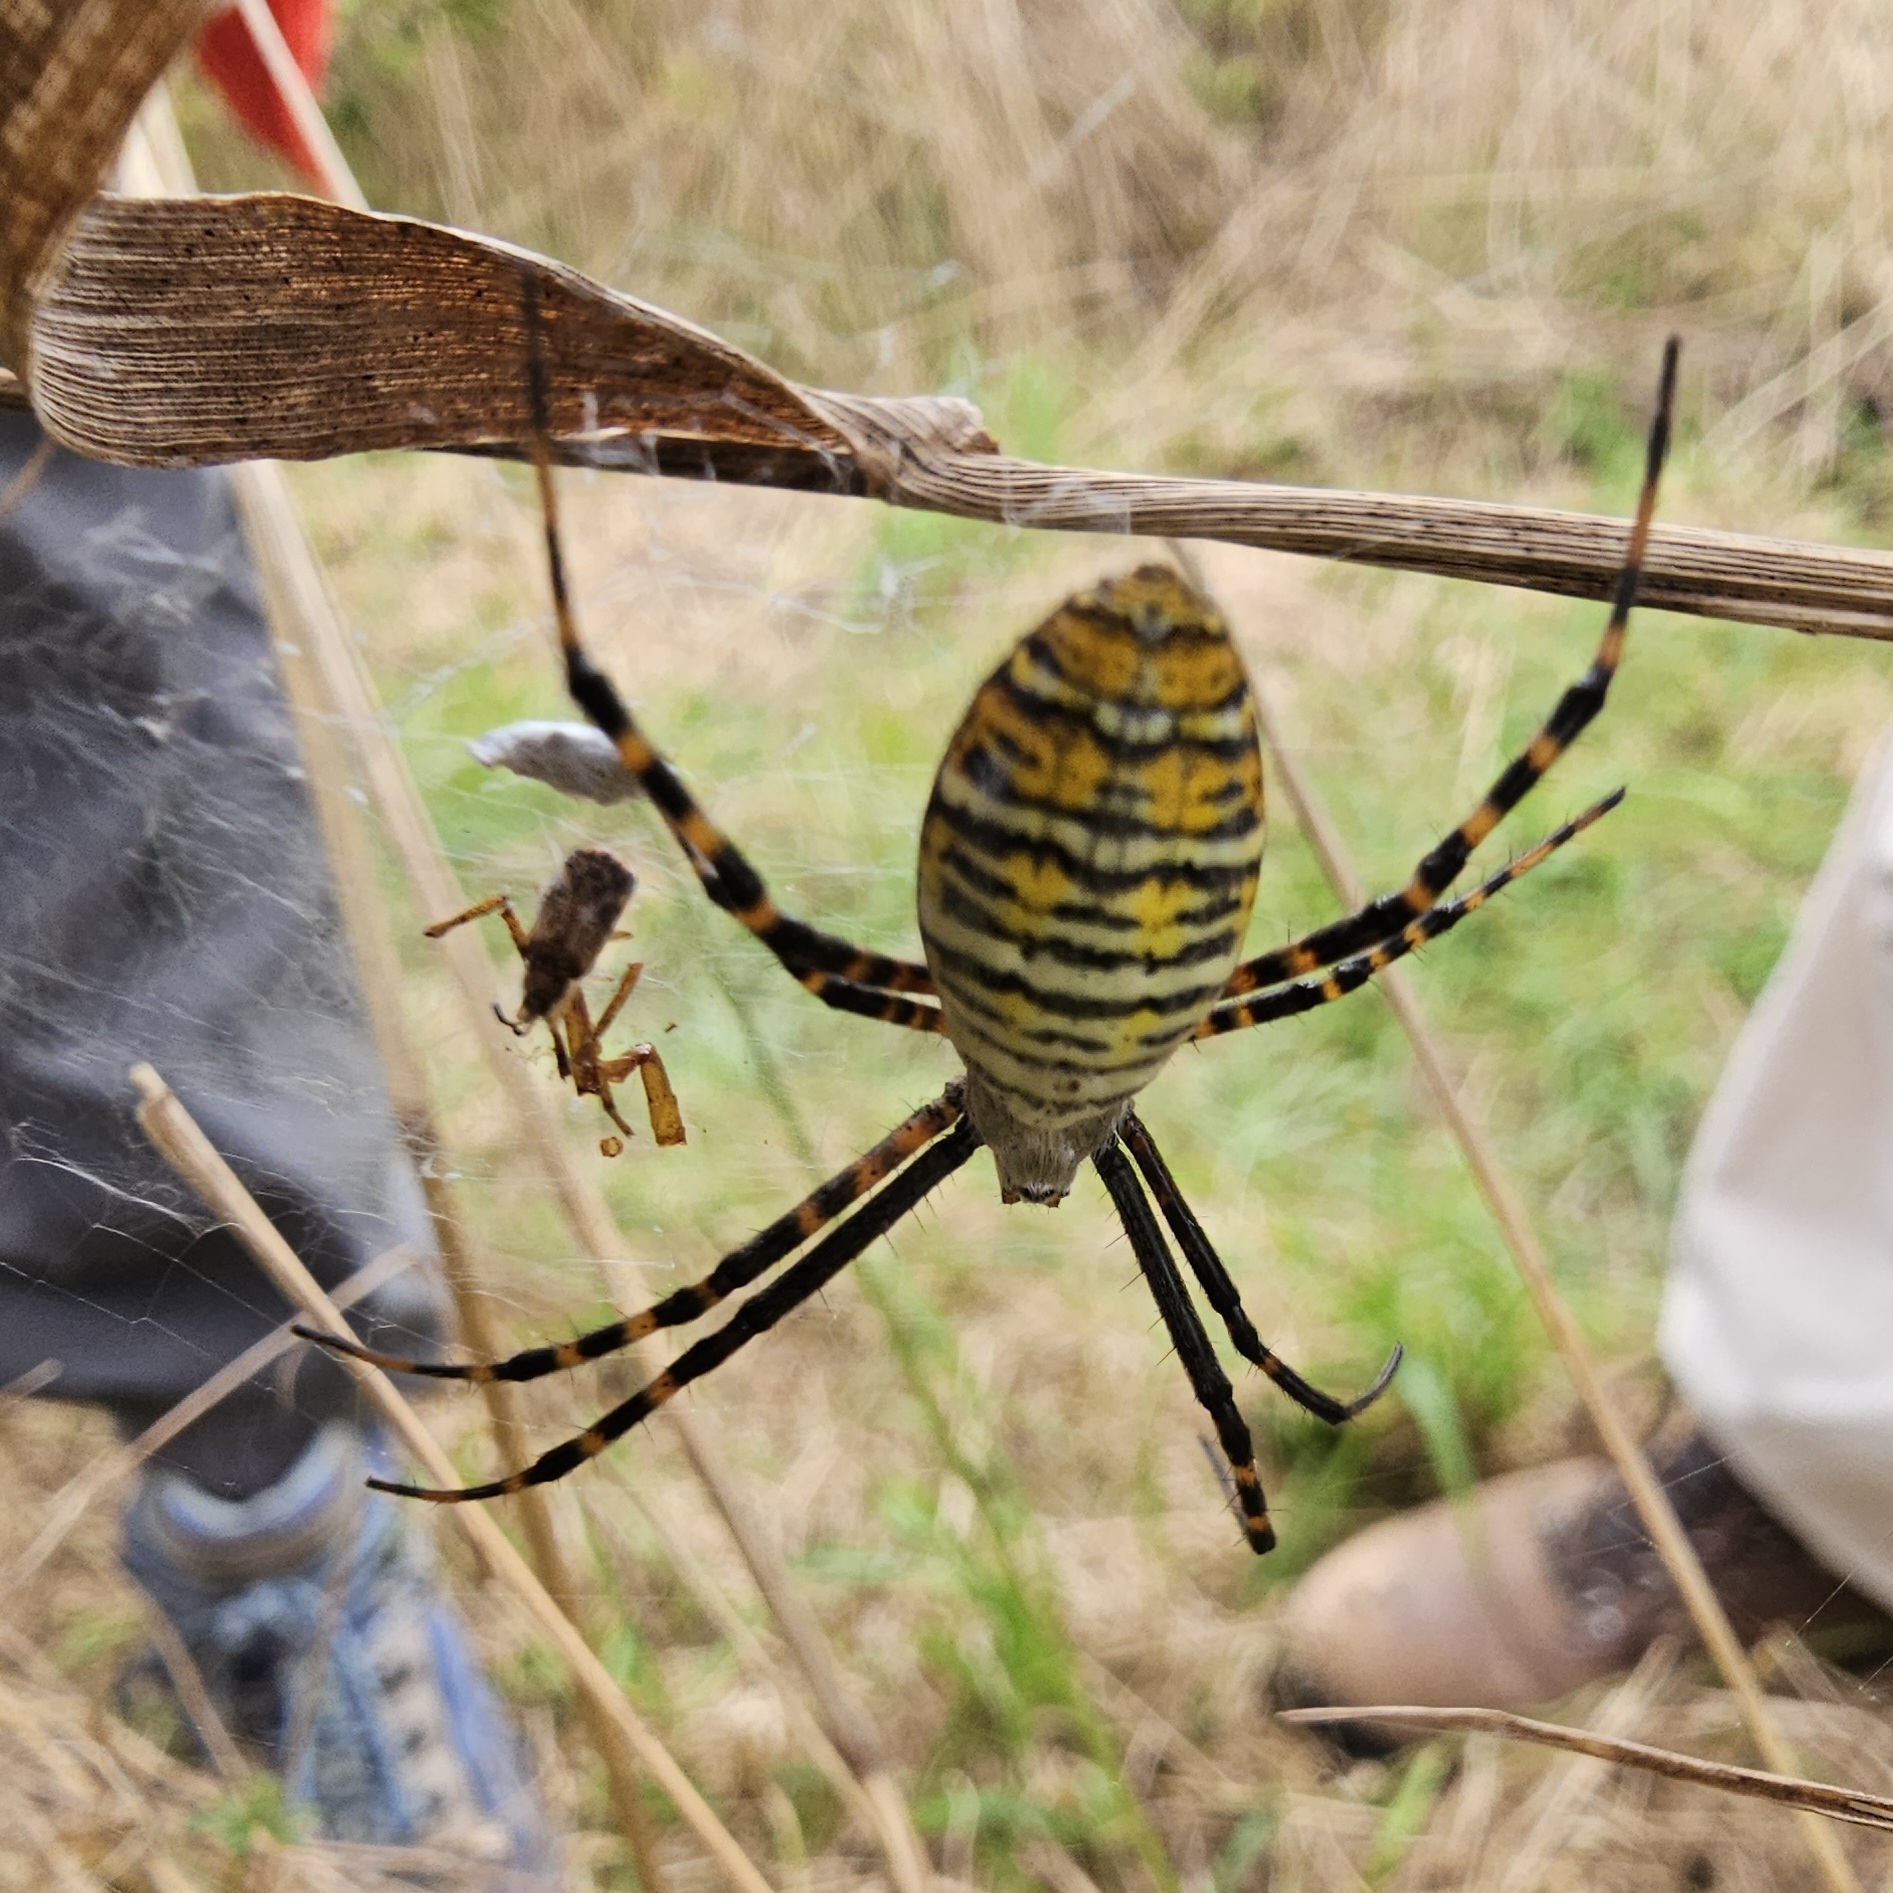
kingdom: Animalia
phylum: Arthropoda
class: Arachnida
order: Araneae
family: Araneidae
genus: Argiope
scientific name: Argiope trifasciata
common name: Banded garden spider
